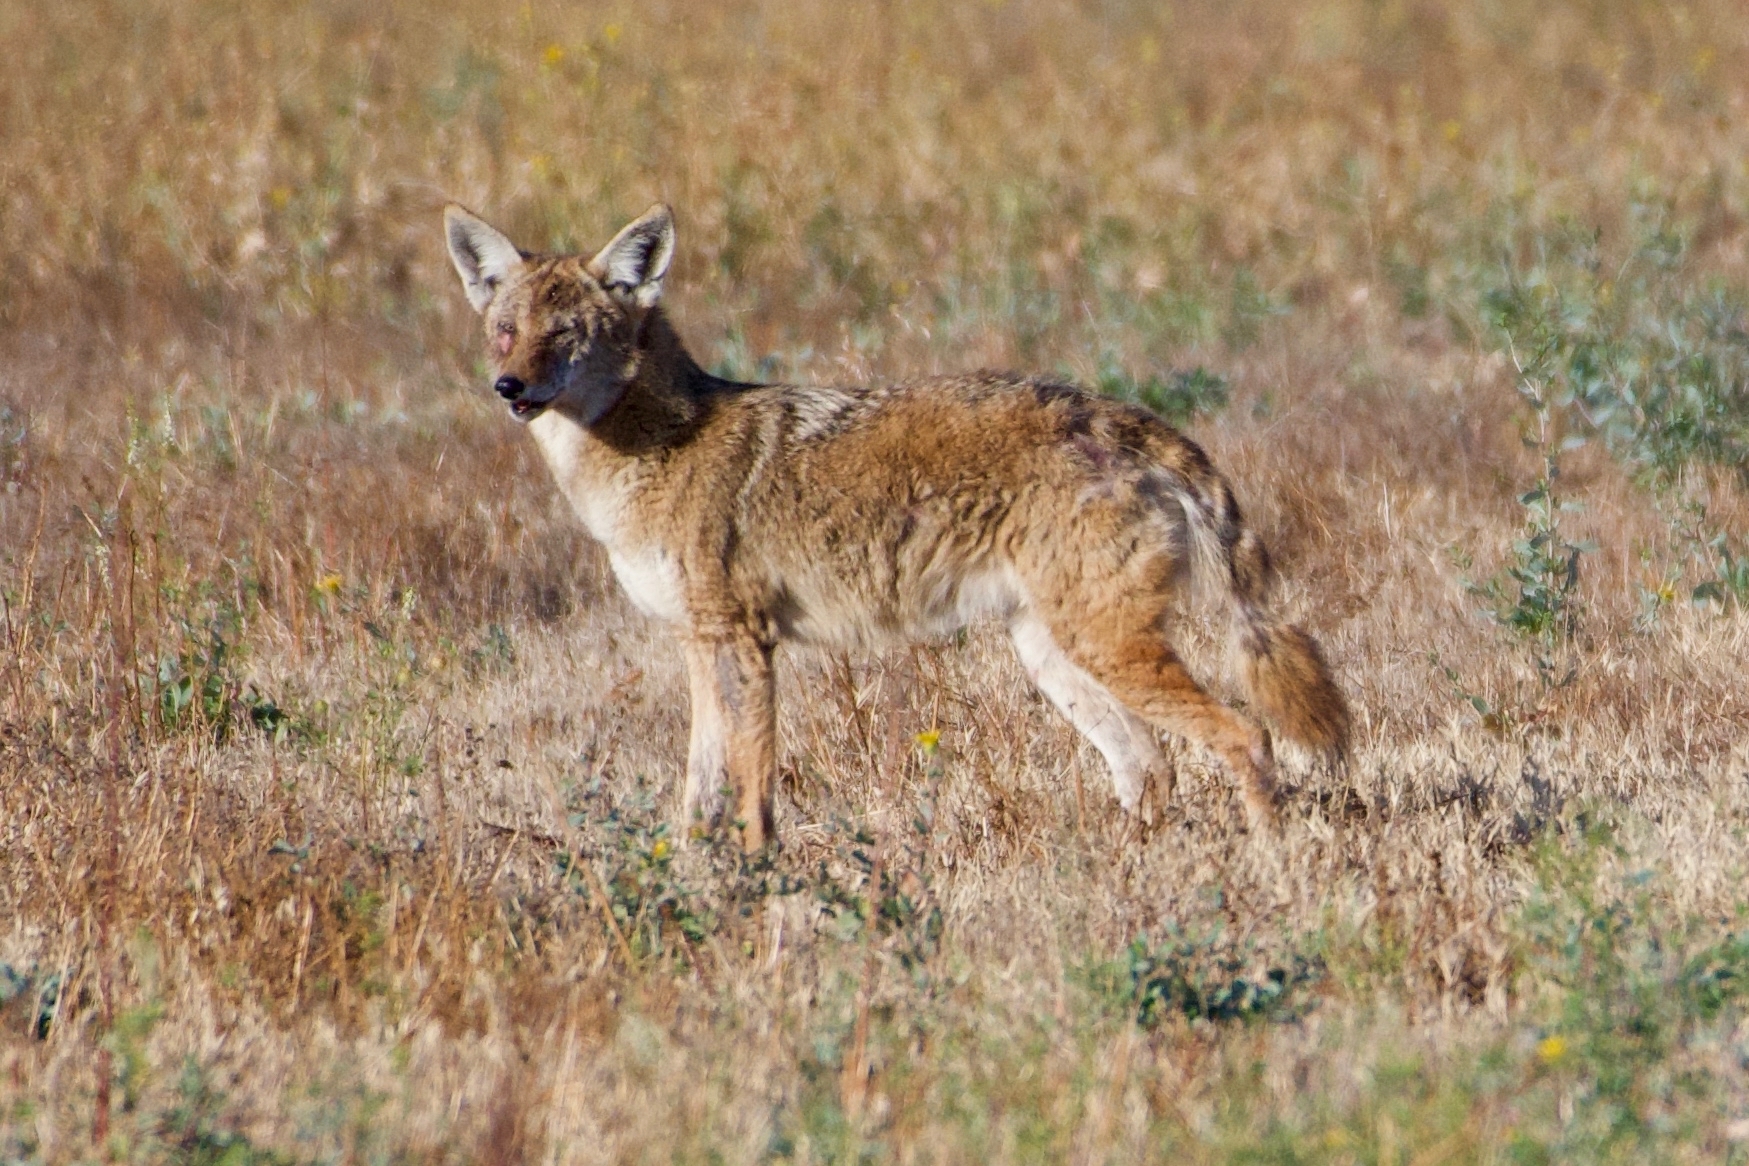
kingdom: Animalia
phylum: Chordata
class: Mammalia
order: Carnivora
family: Canidae
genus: Canis
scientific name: Canis latrans
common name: Coyote
